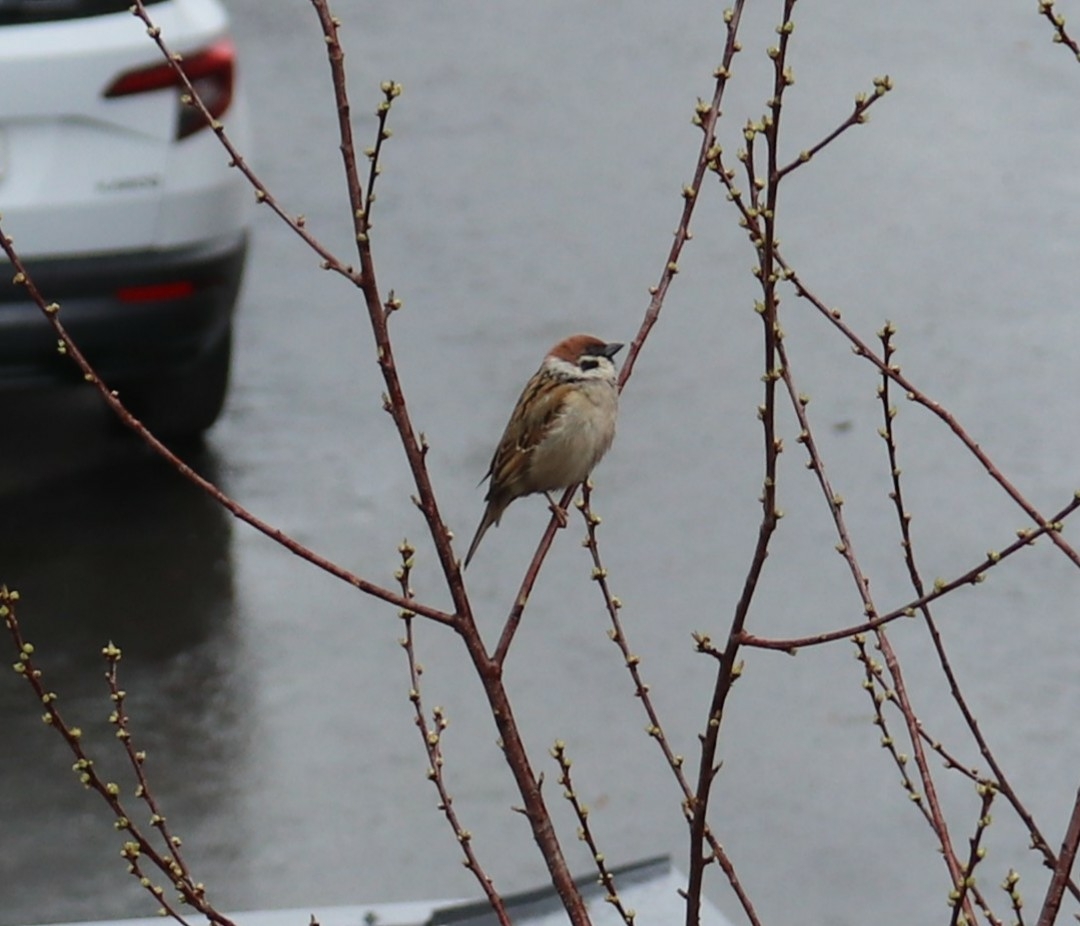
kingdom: Animalia
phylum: Chordata
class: Aves
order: Passeriformes
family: Passeridae
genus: Passer
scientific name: Passer montanus
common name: Eurasian tree sparrow
